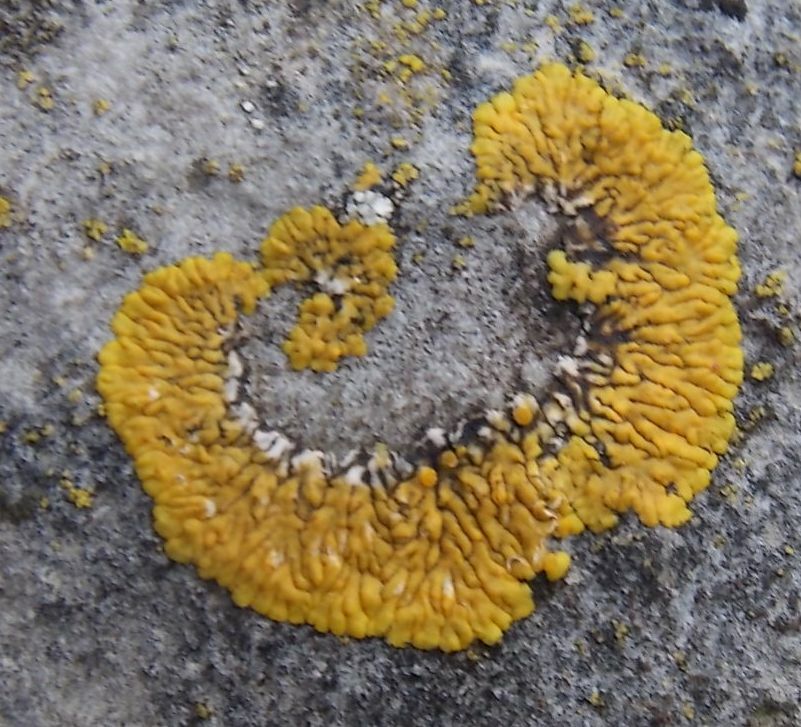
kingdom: Fungi
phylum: Ascomycota
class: Lecanoromycetes
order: Teloschistales
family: Teloschistaceae
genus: Variospora
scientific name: Variospora flavescens
